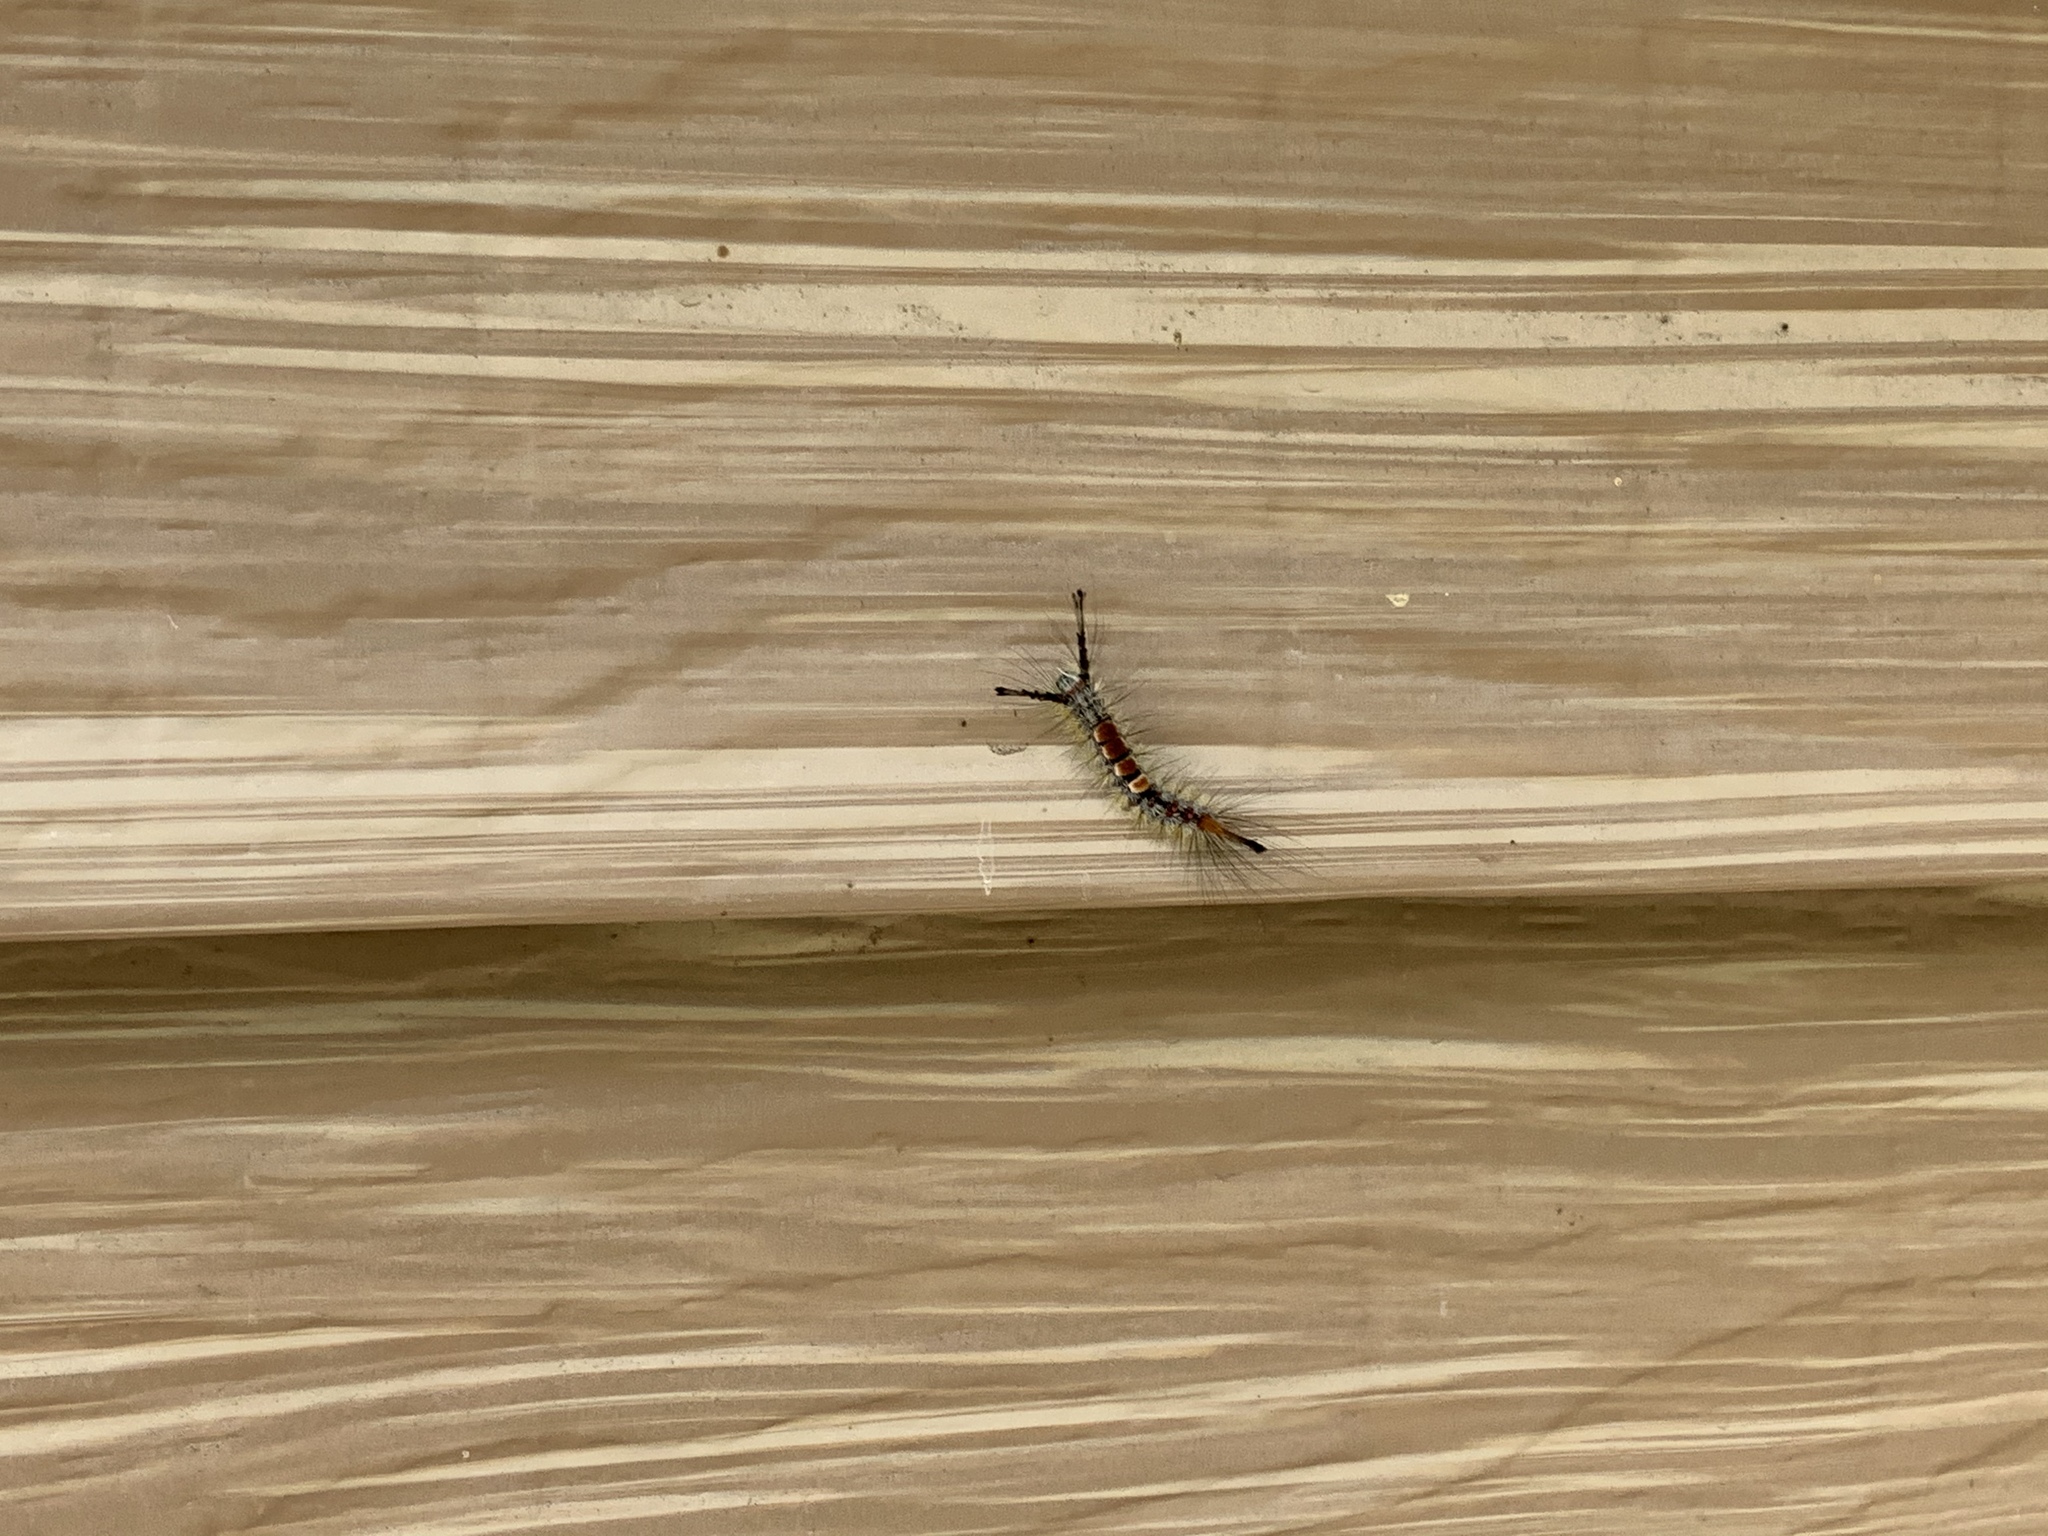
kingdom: Animalia
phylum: Arthropoda
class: Insecta
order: Lepidoptera
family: Erebidae
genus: Orgyia
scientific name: Orgyia pseudotsugata
